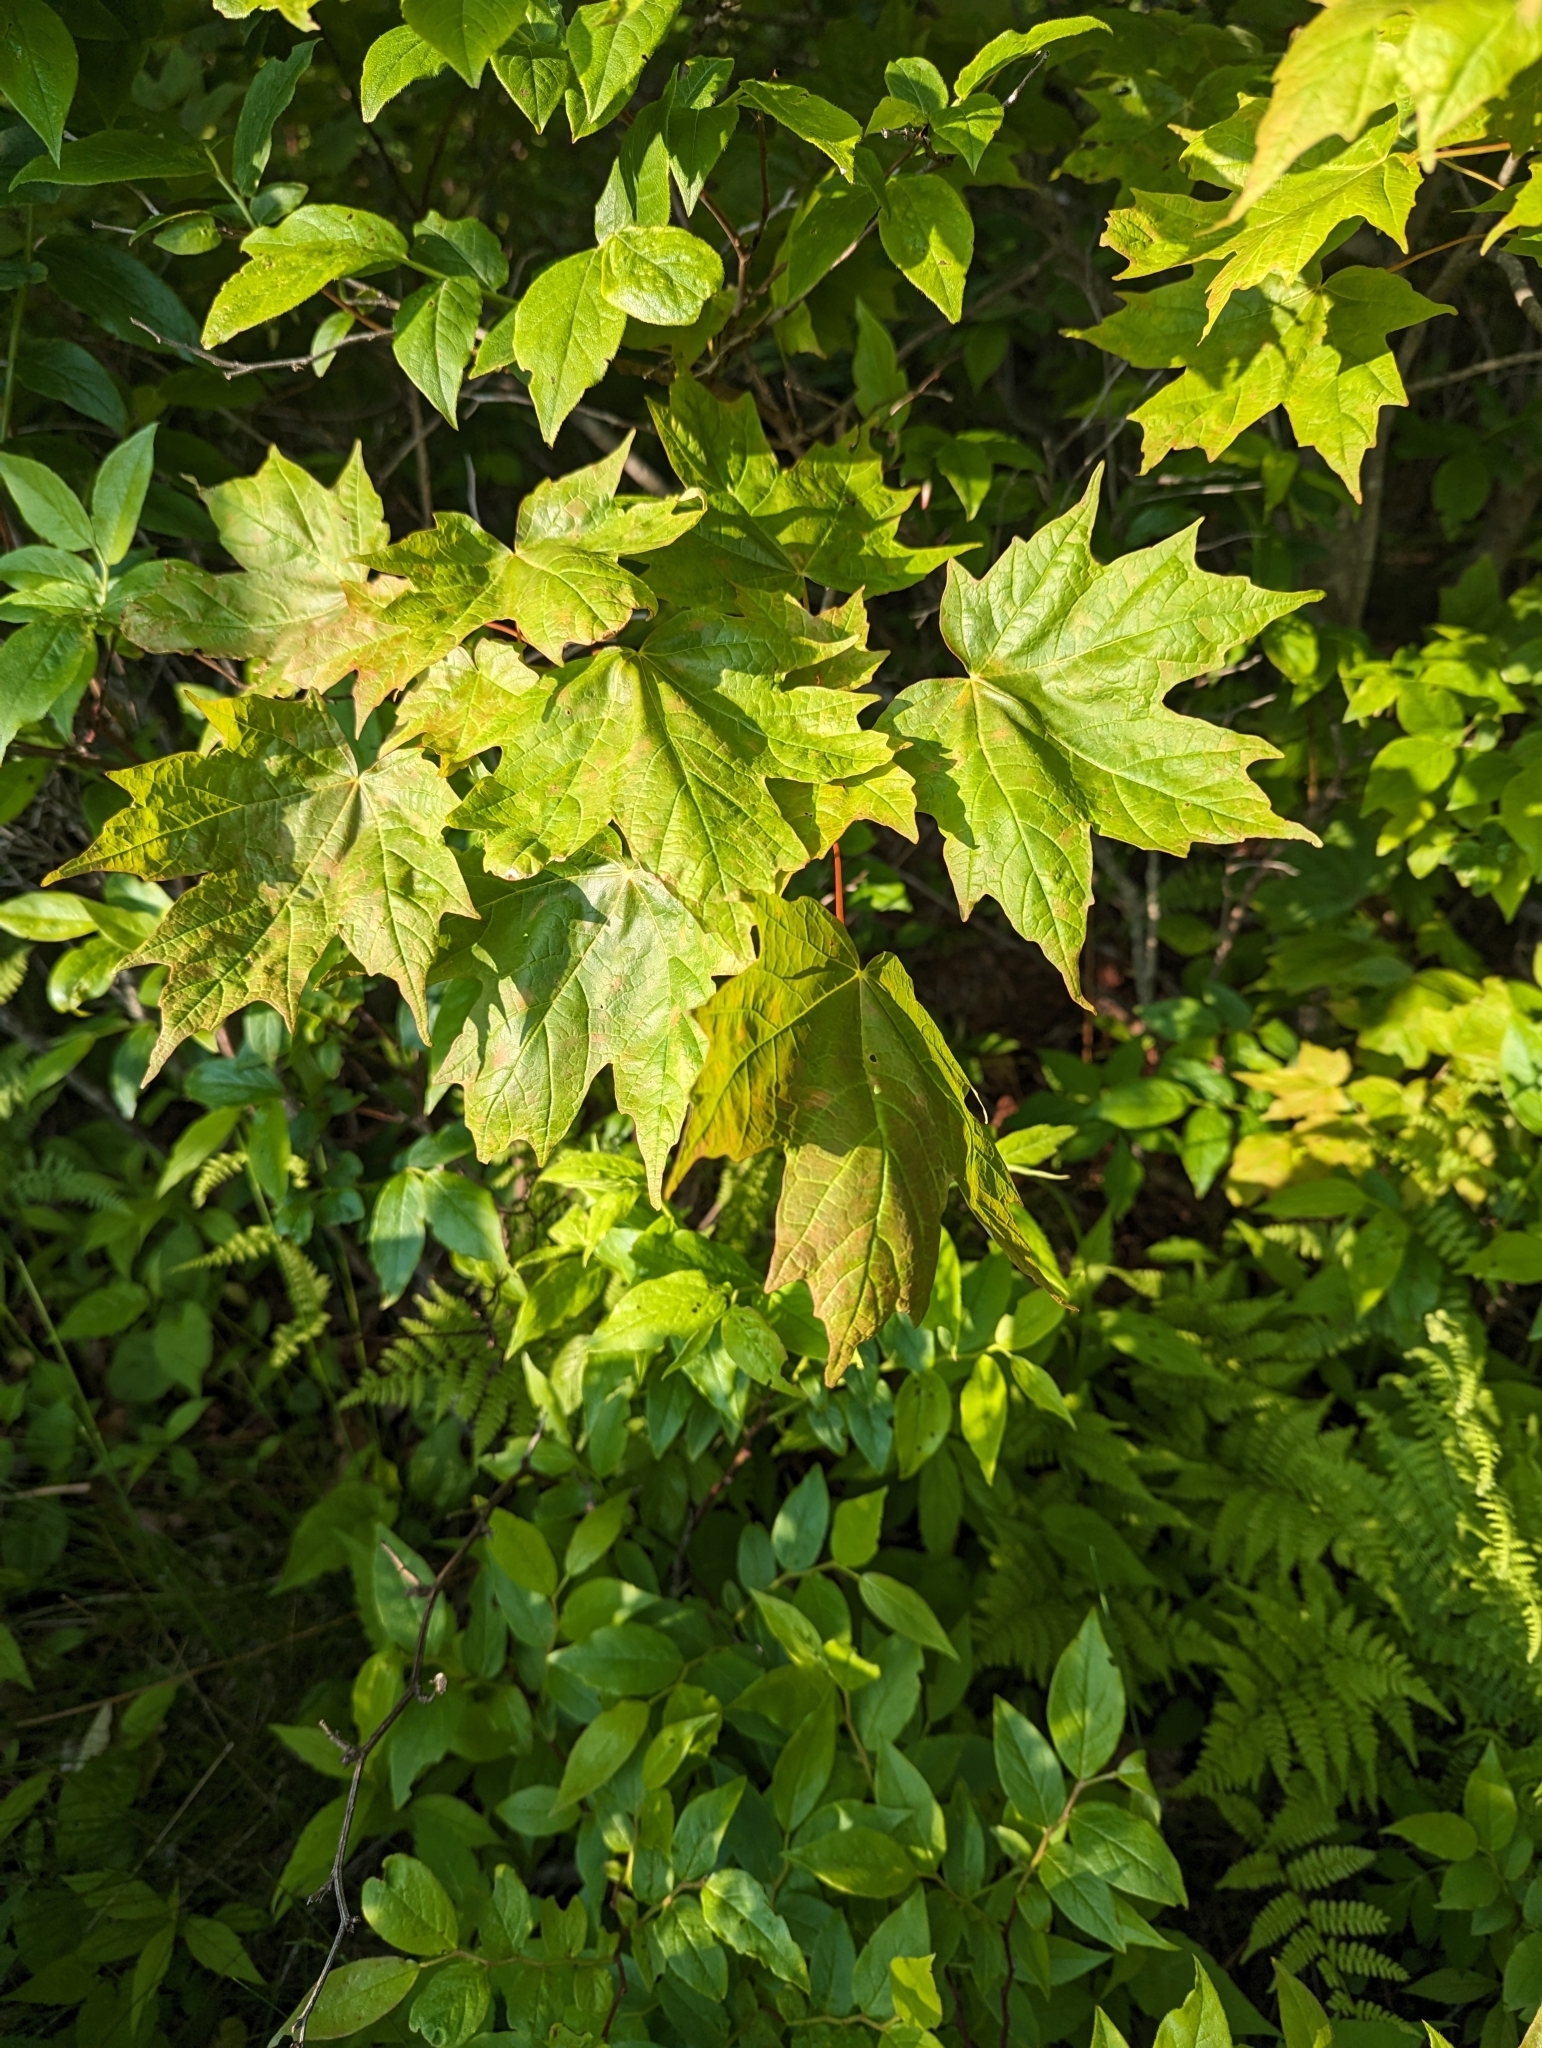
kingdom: Plantae
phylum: Tracheophyta
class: Magnoliopsida
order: Sapindales
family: Sapindaceae
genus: Acer
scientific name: Acer saccharum
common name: Sugar maple
